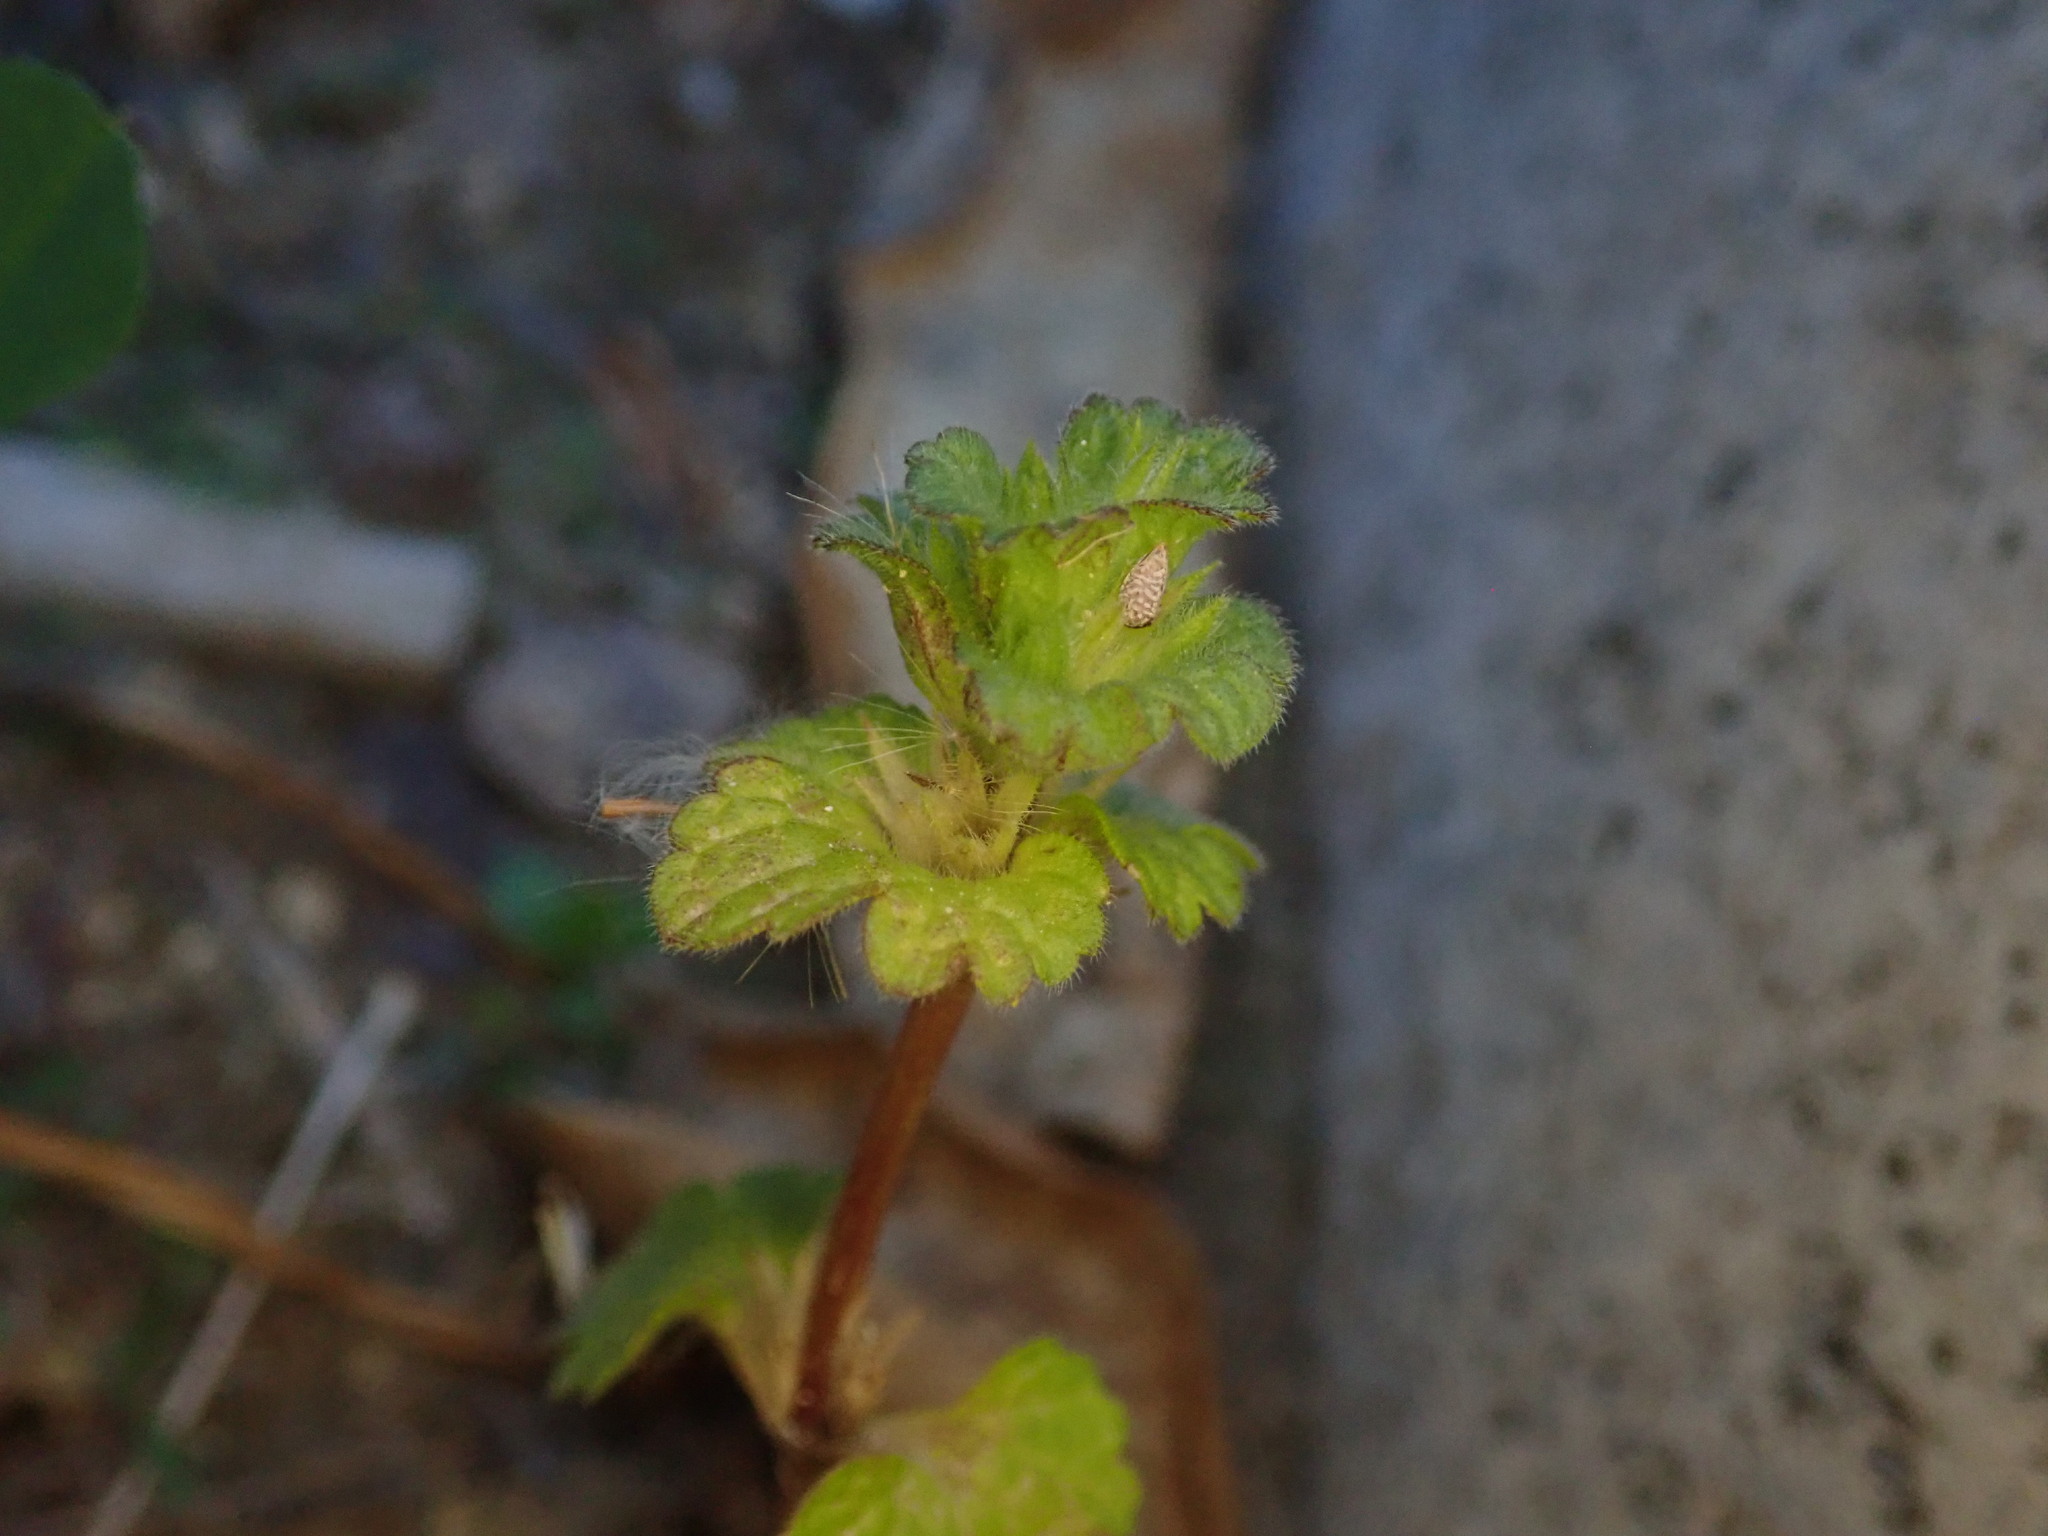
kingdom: Plantae
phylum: Tracheophyta
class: Magnoliopsida
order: Lamiales
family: Lamiaceae
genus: Lamium
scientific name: Lamium amplexicaule
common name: Henbit dead-nettle
